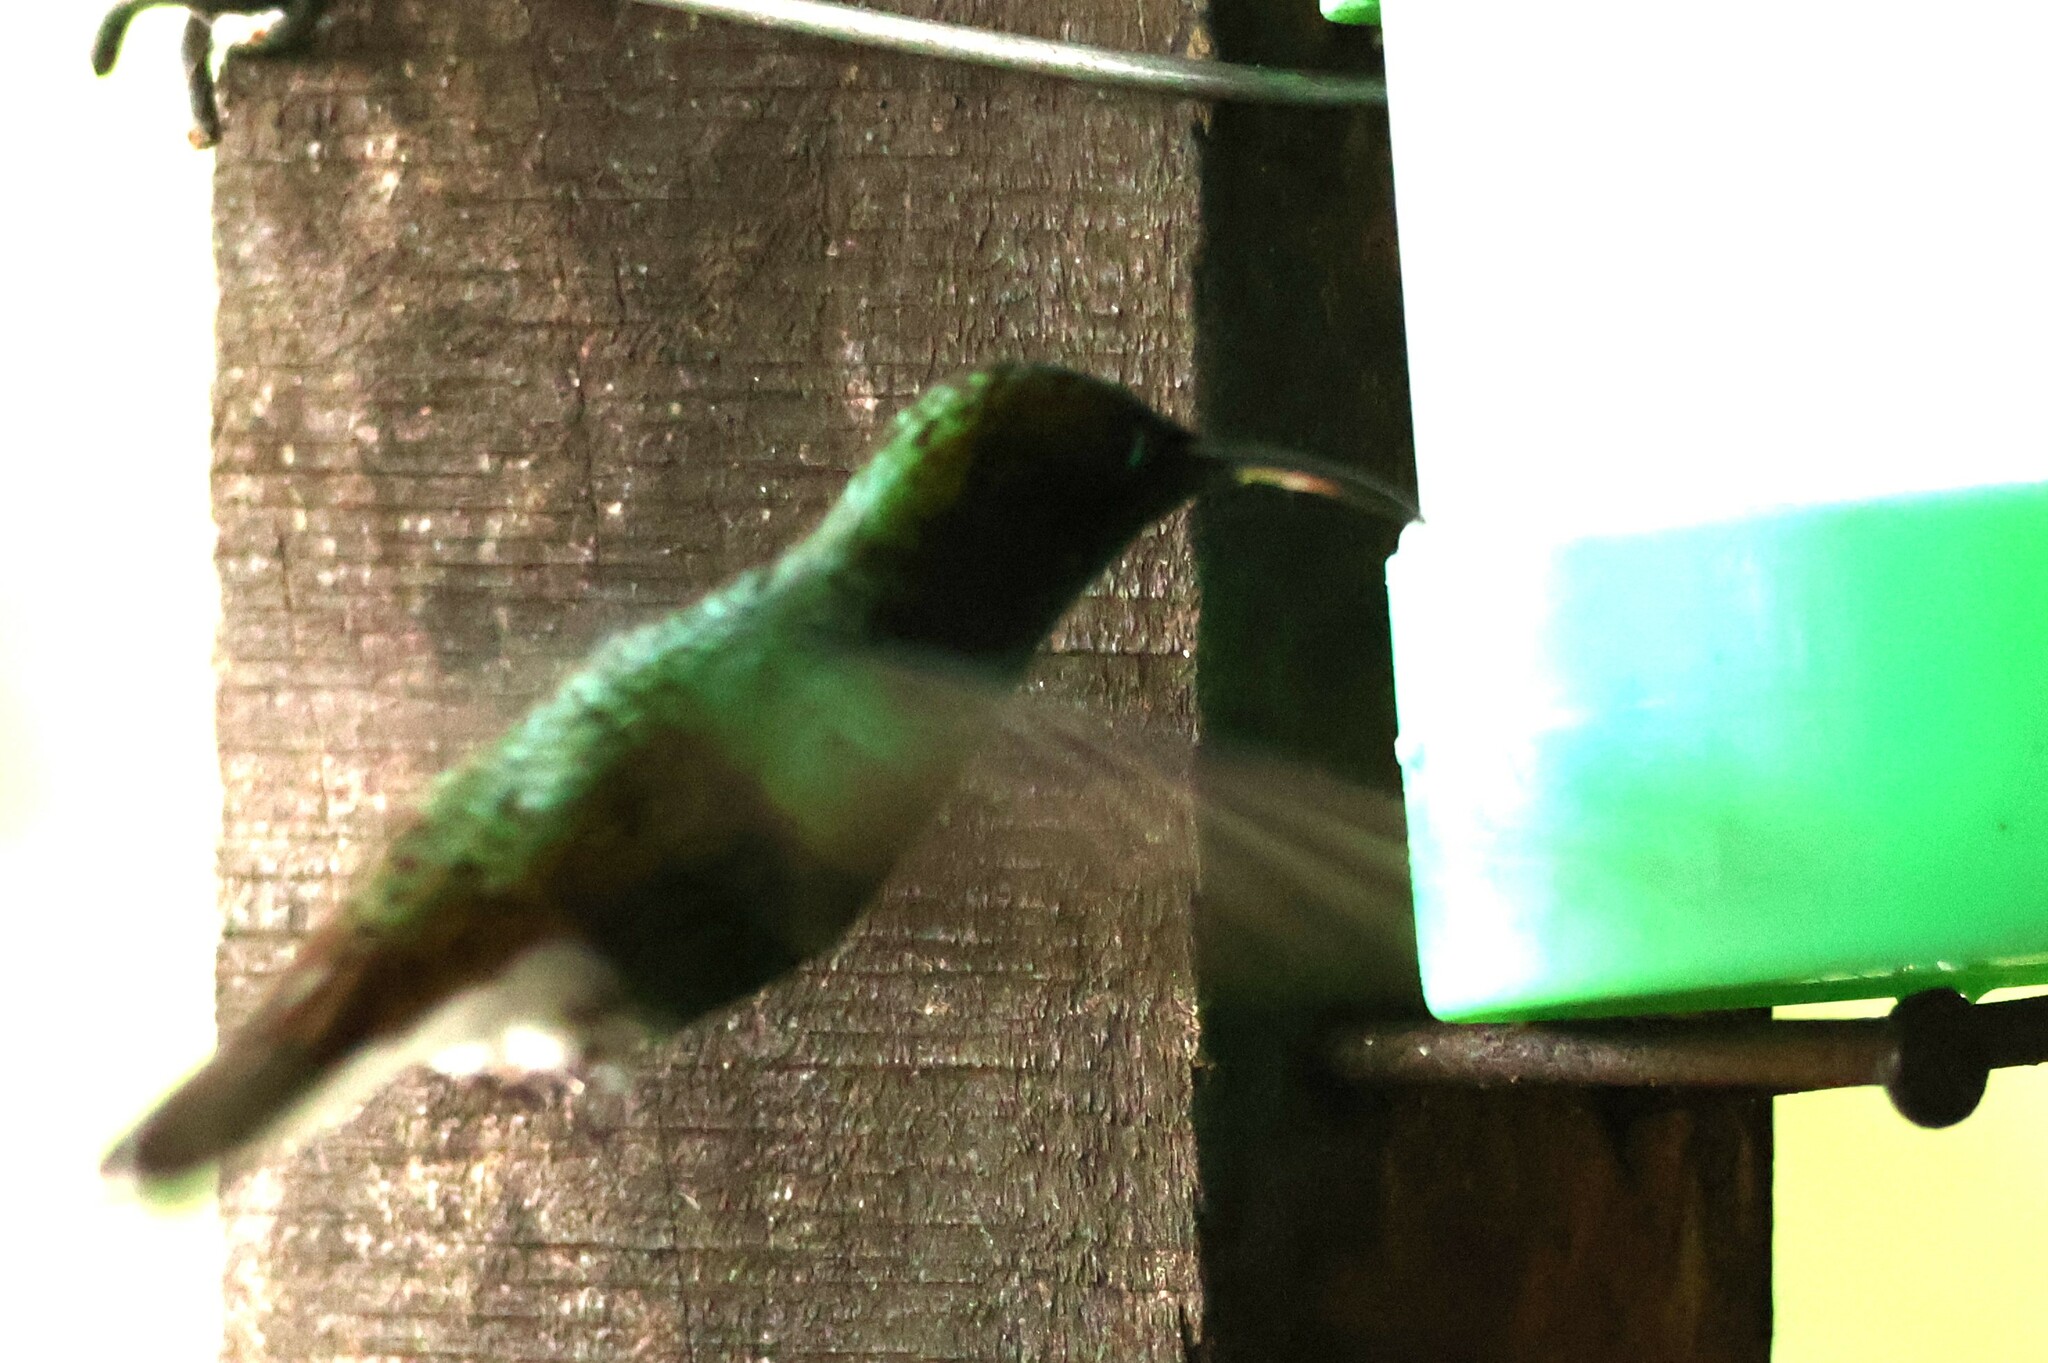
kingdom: Animalia
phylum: Chordata
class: Aves
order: Apodiformes
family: Trochilidae
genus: Microchera
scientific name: Microchera cupreiceps
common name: Coppery-headed emerald
